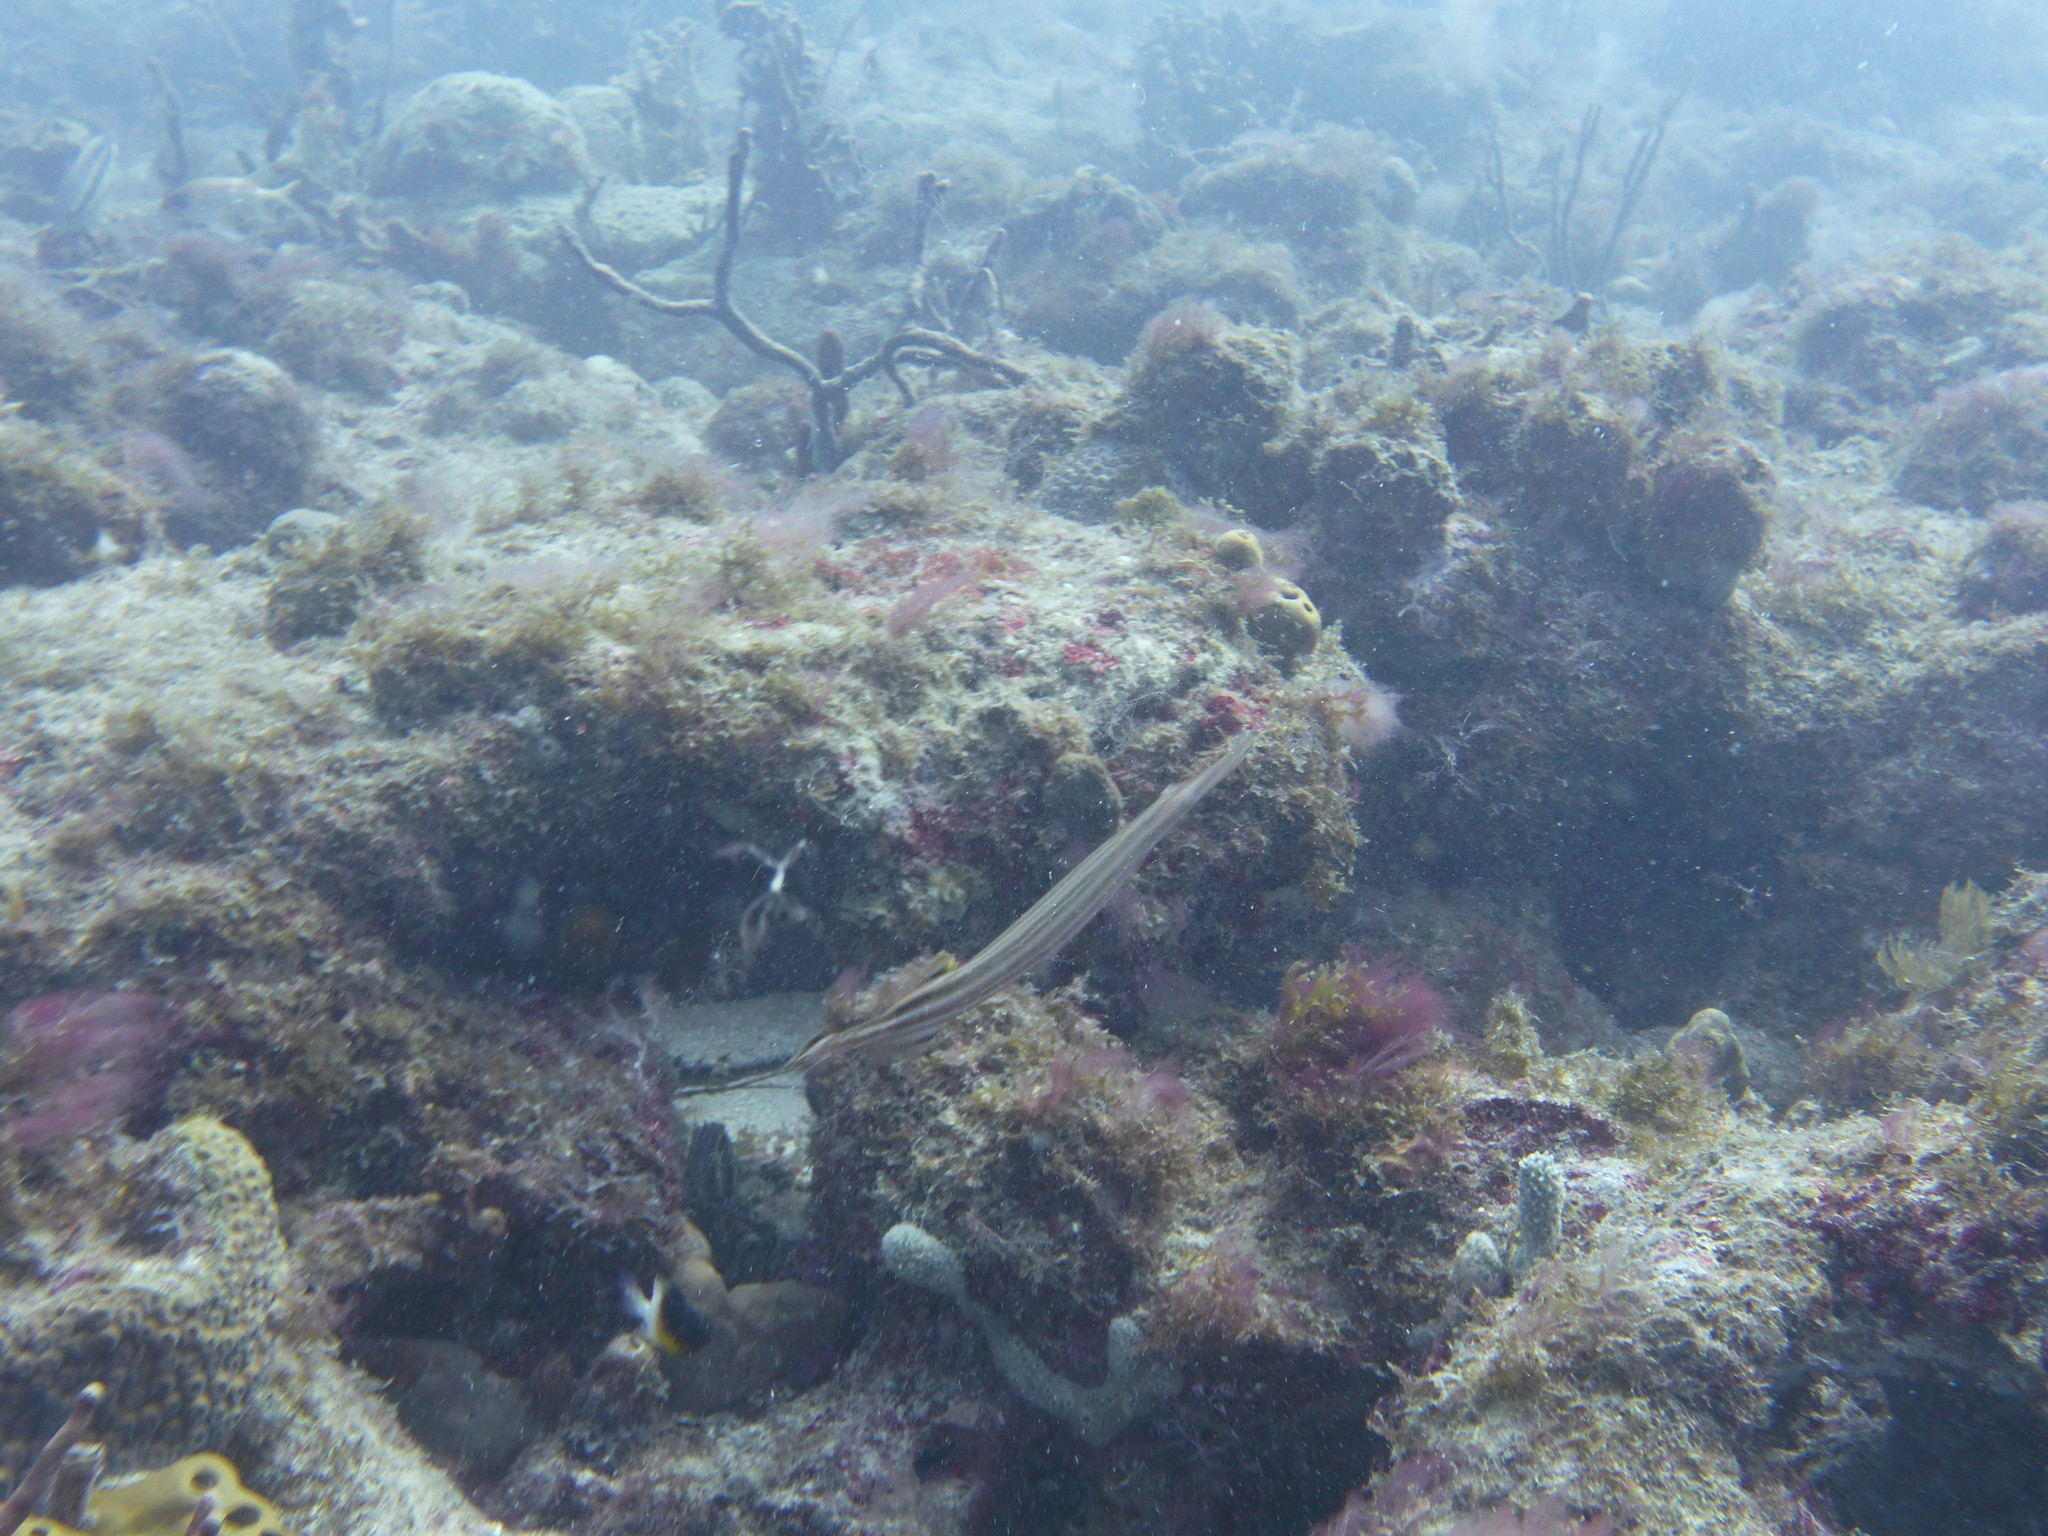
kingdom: Animalia
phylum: Chordata
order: Syngnathiformes
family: Aulostomidae
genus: Aulostomus
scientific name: Aulostomus maculatus
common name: West atlantic trumpetfish
